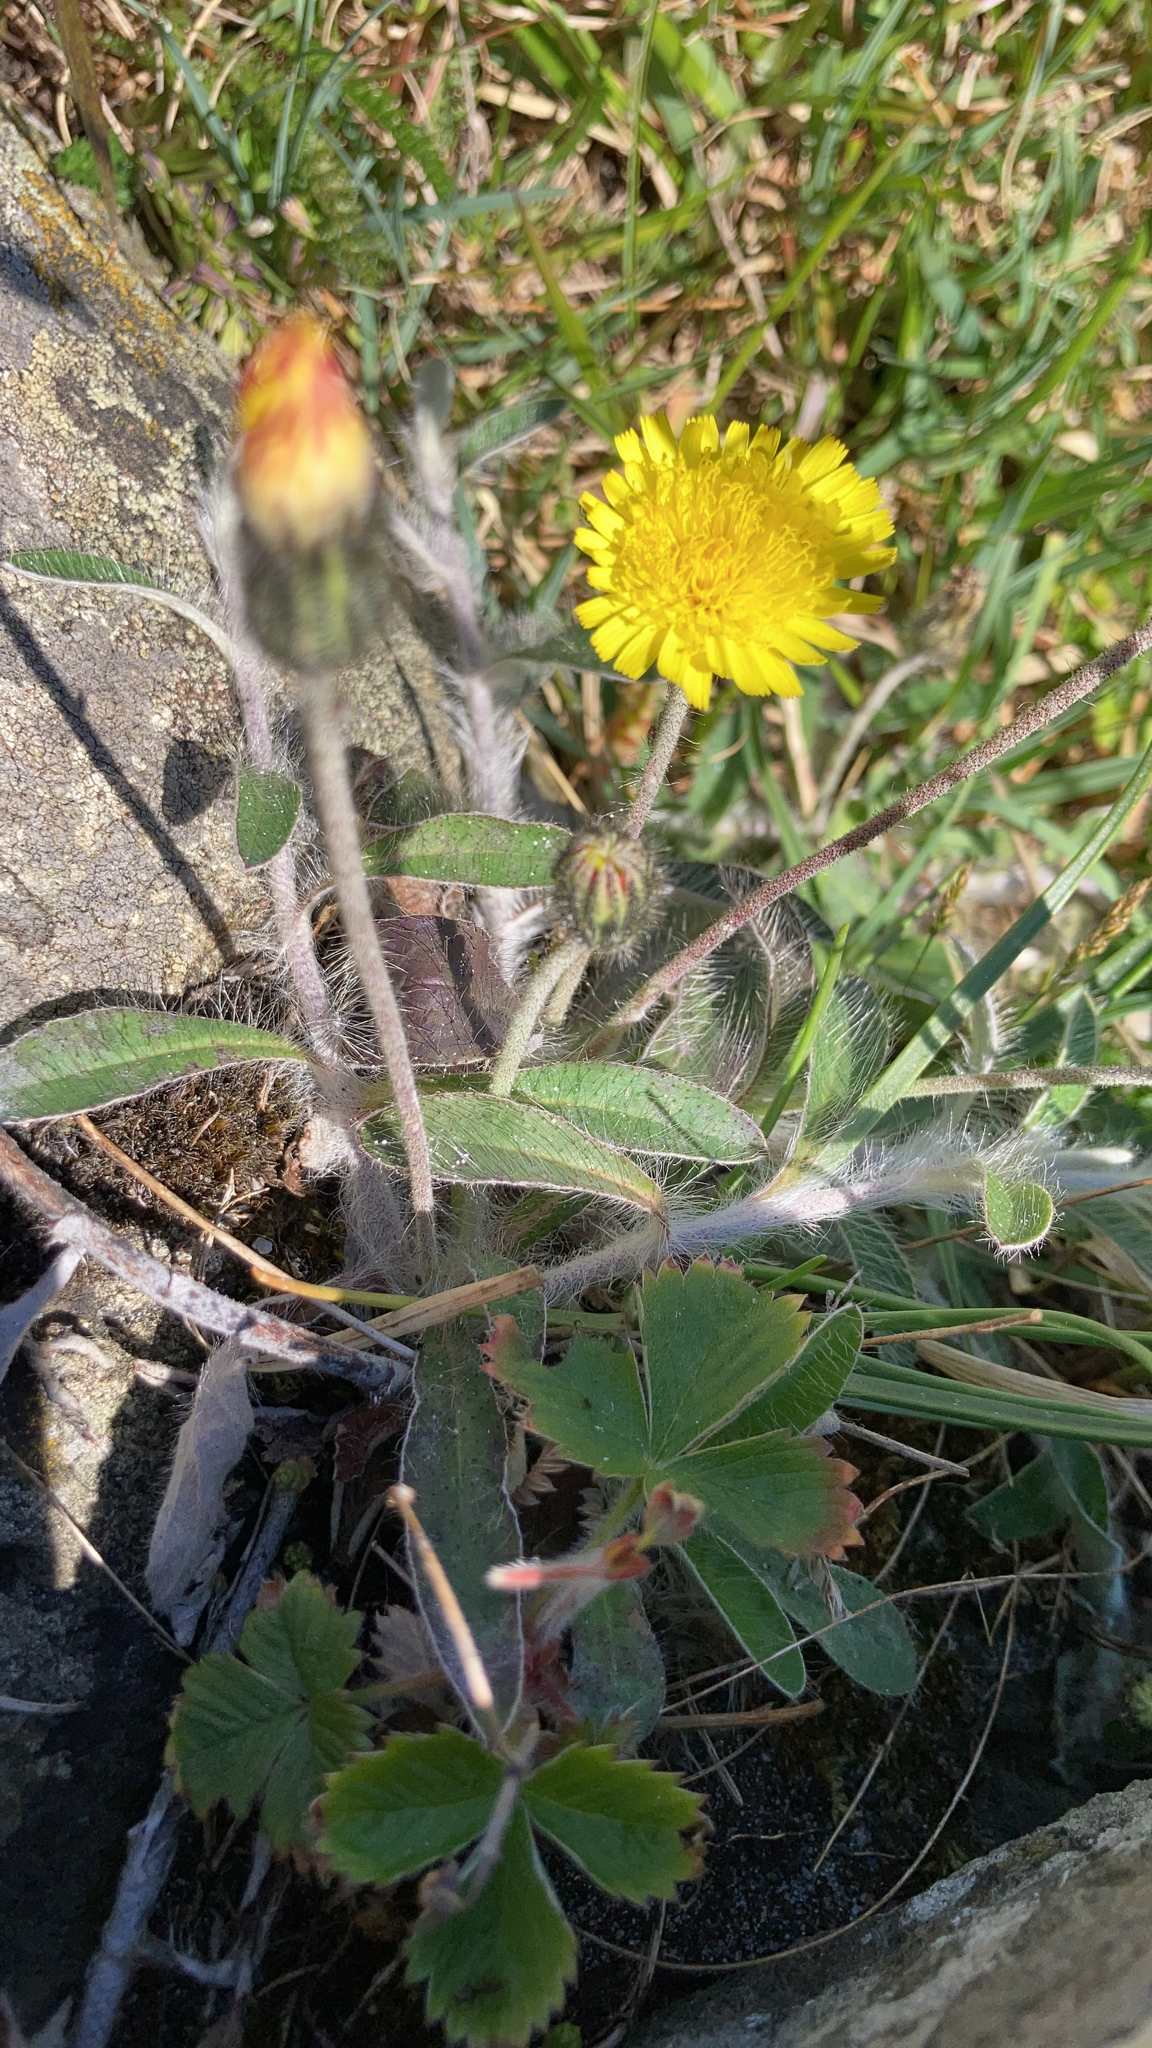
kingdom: Plantae
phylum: Tracheophyta
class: Magnoliopsida
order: Asterales
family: Asteraceae
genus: Pilosella
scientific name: Pilosella officinarum
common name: Mouse-ear hawkweed
